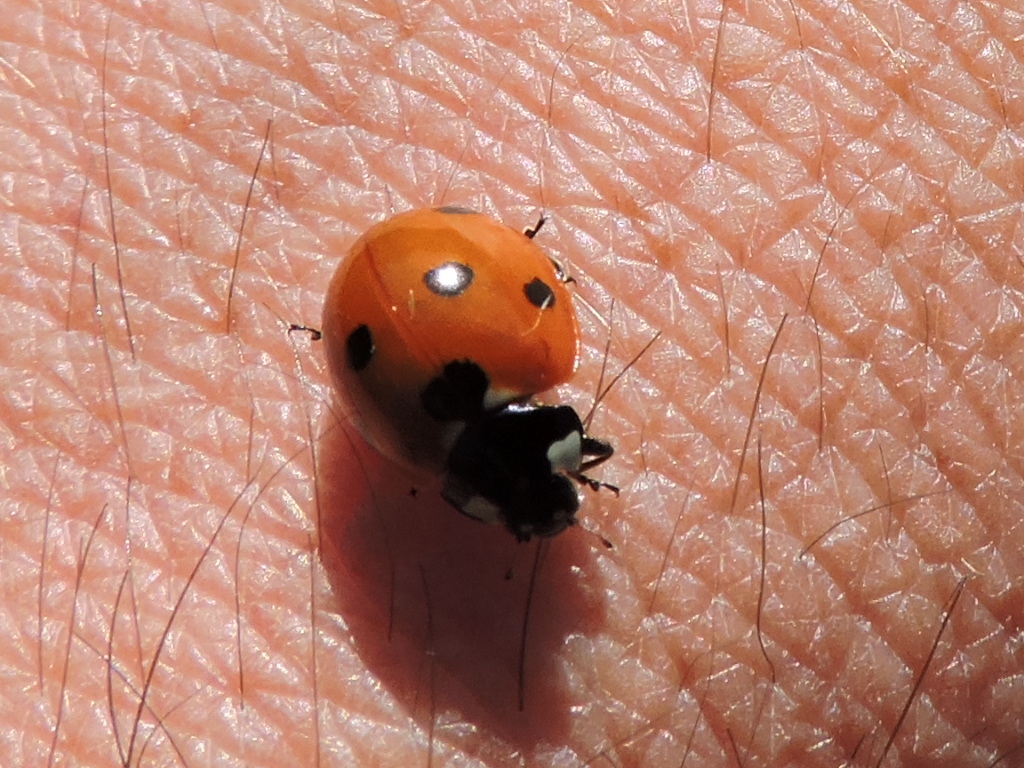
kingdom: Animalia
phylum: Arthropoda
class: Insecta
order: Coleoptera
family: Coccinellidae
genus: Coccinella
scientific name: Coccinella septempunctata
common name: Sevenspotted lady beetle
